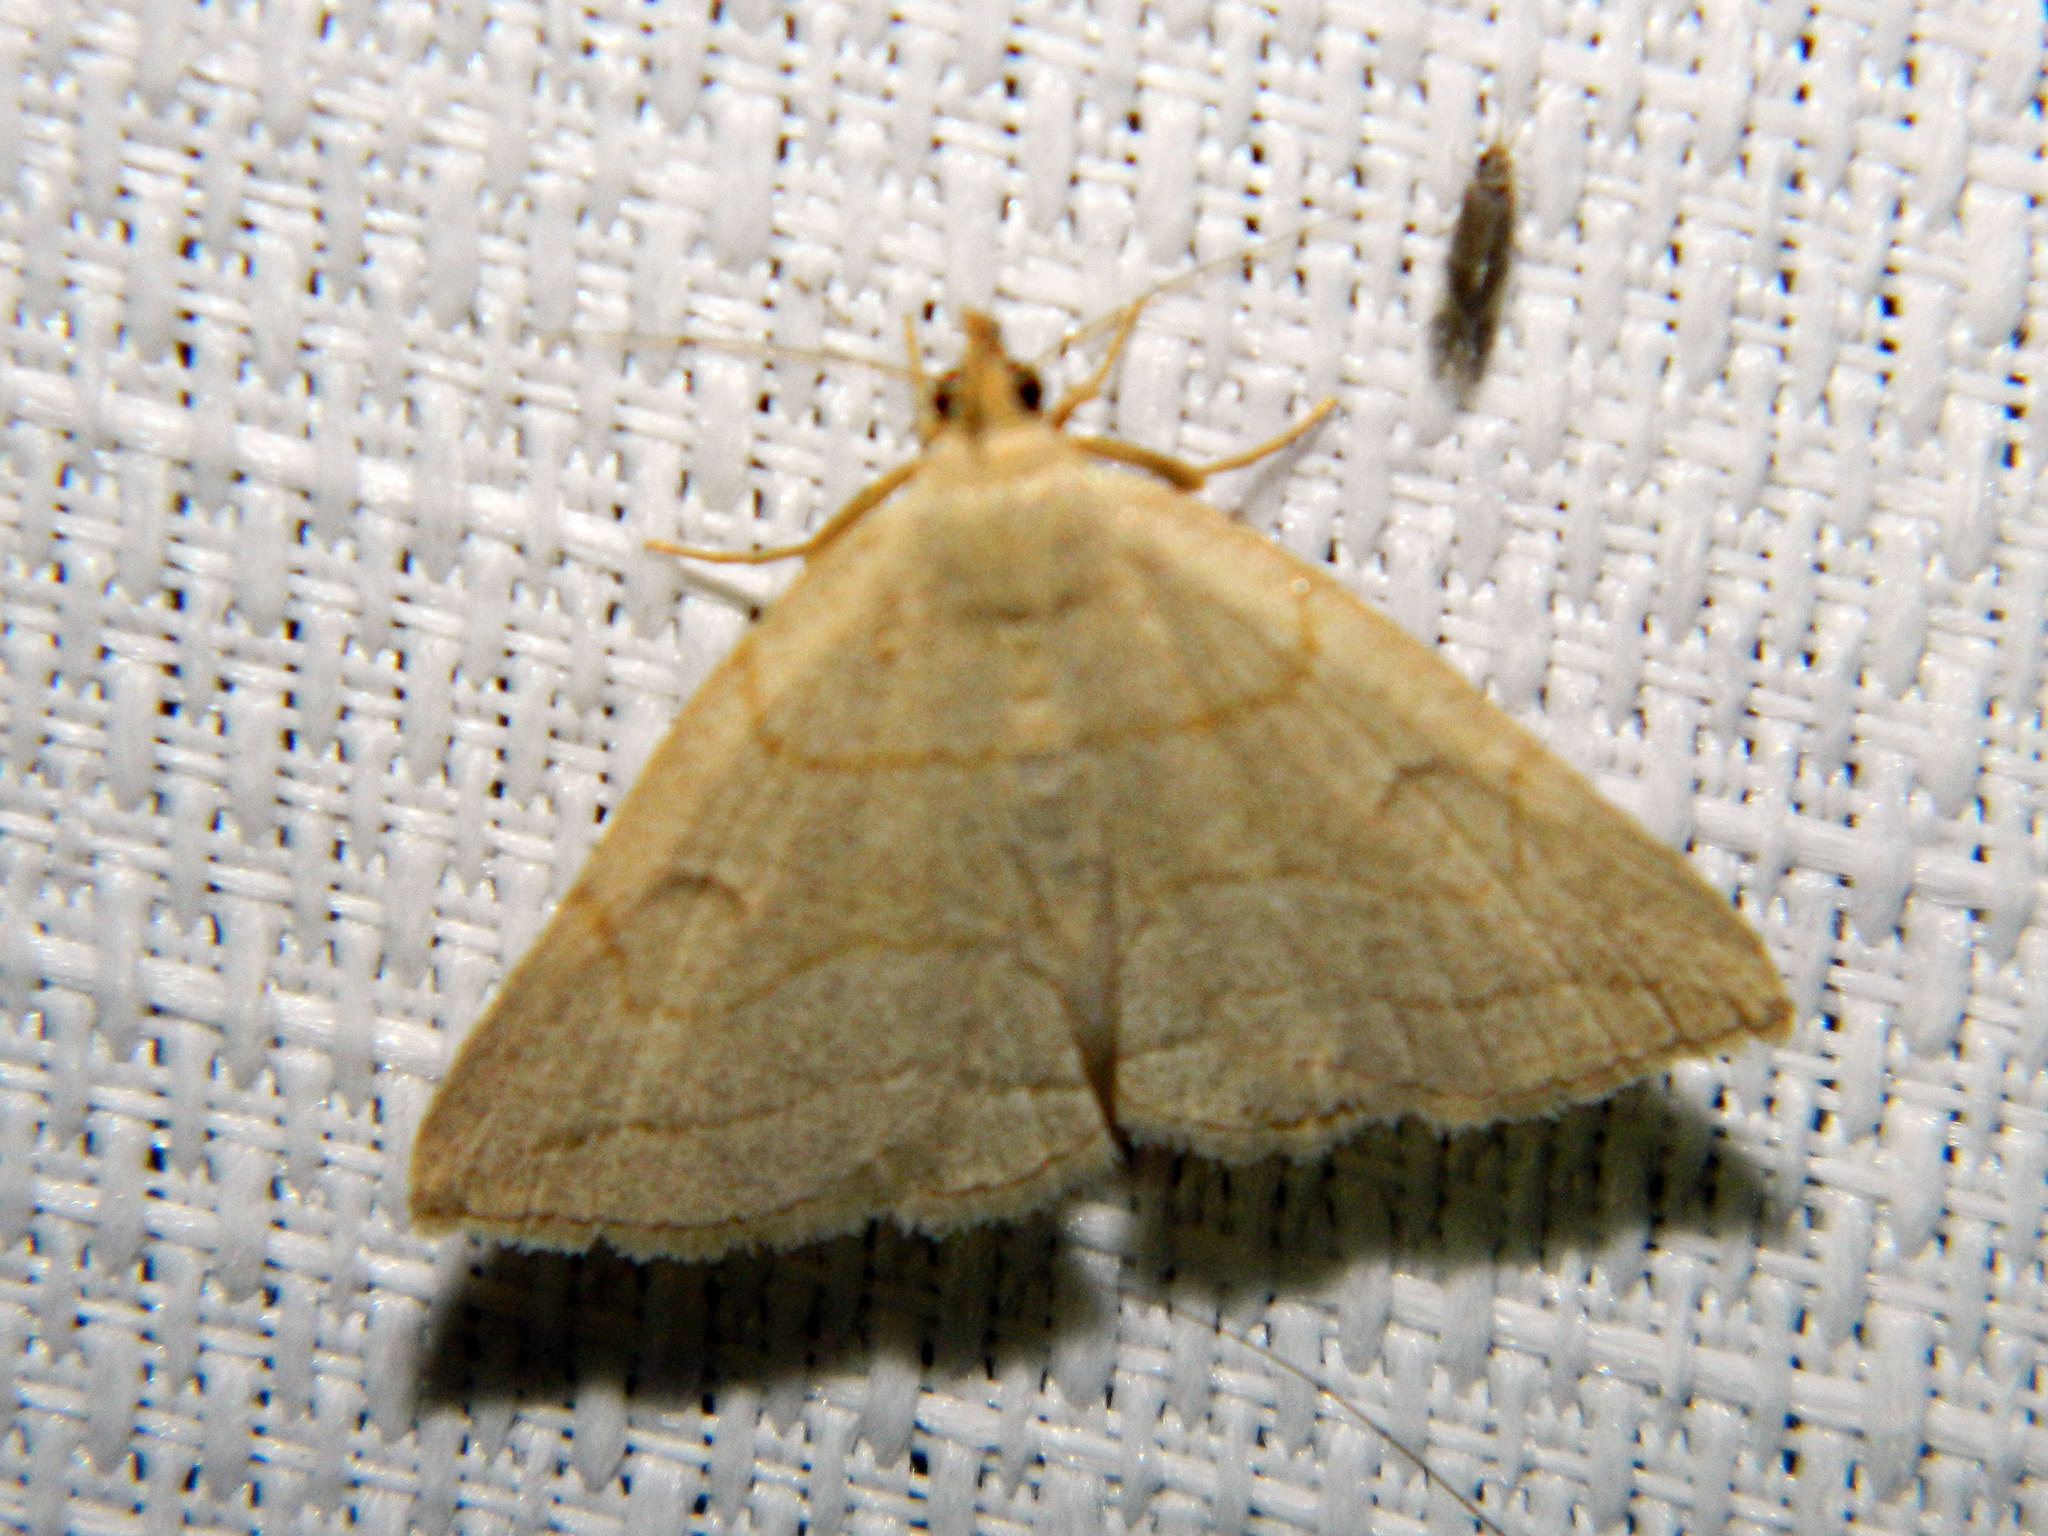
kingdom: Animalia
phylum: Arthropoda
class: Insecta
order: Lepidoptera
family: Erebidae
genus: Zanclognatha
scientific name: Zanclognatha pedipilalis
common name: Grayish fan-foot
